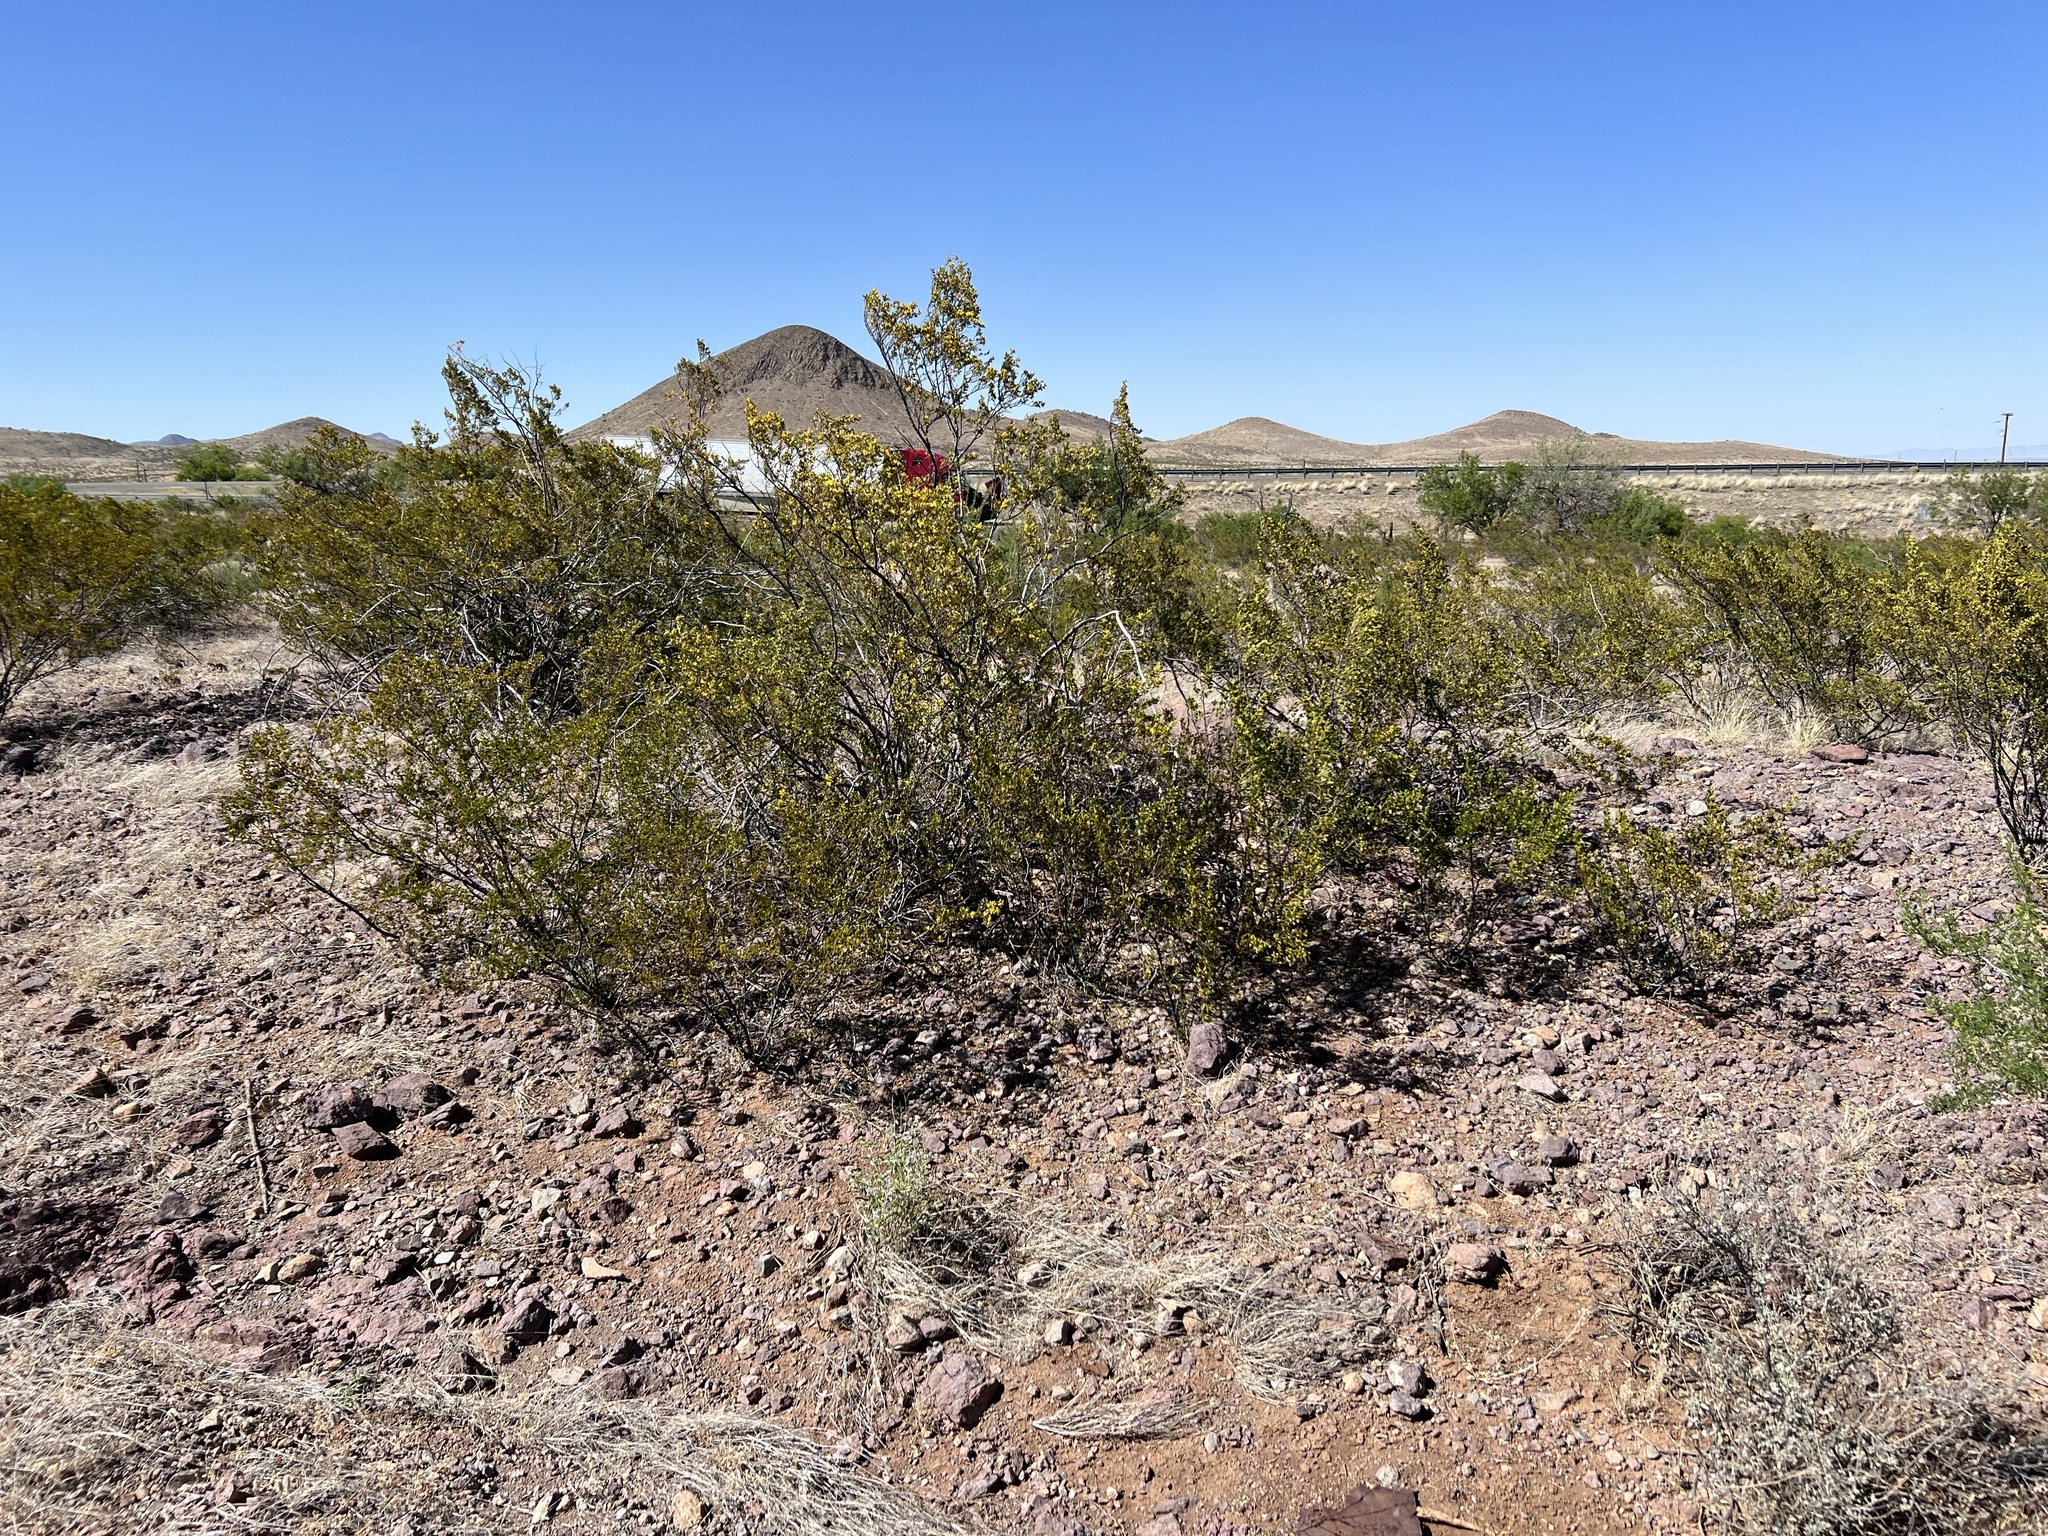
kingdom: Plantae
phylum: Tracheophyta
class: Magnoliopsida
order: Zygophyllales
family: Zygophyllaceae
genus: Larrea
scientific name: Larrea tridentata
